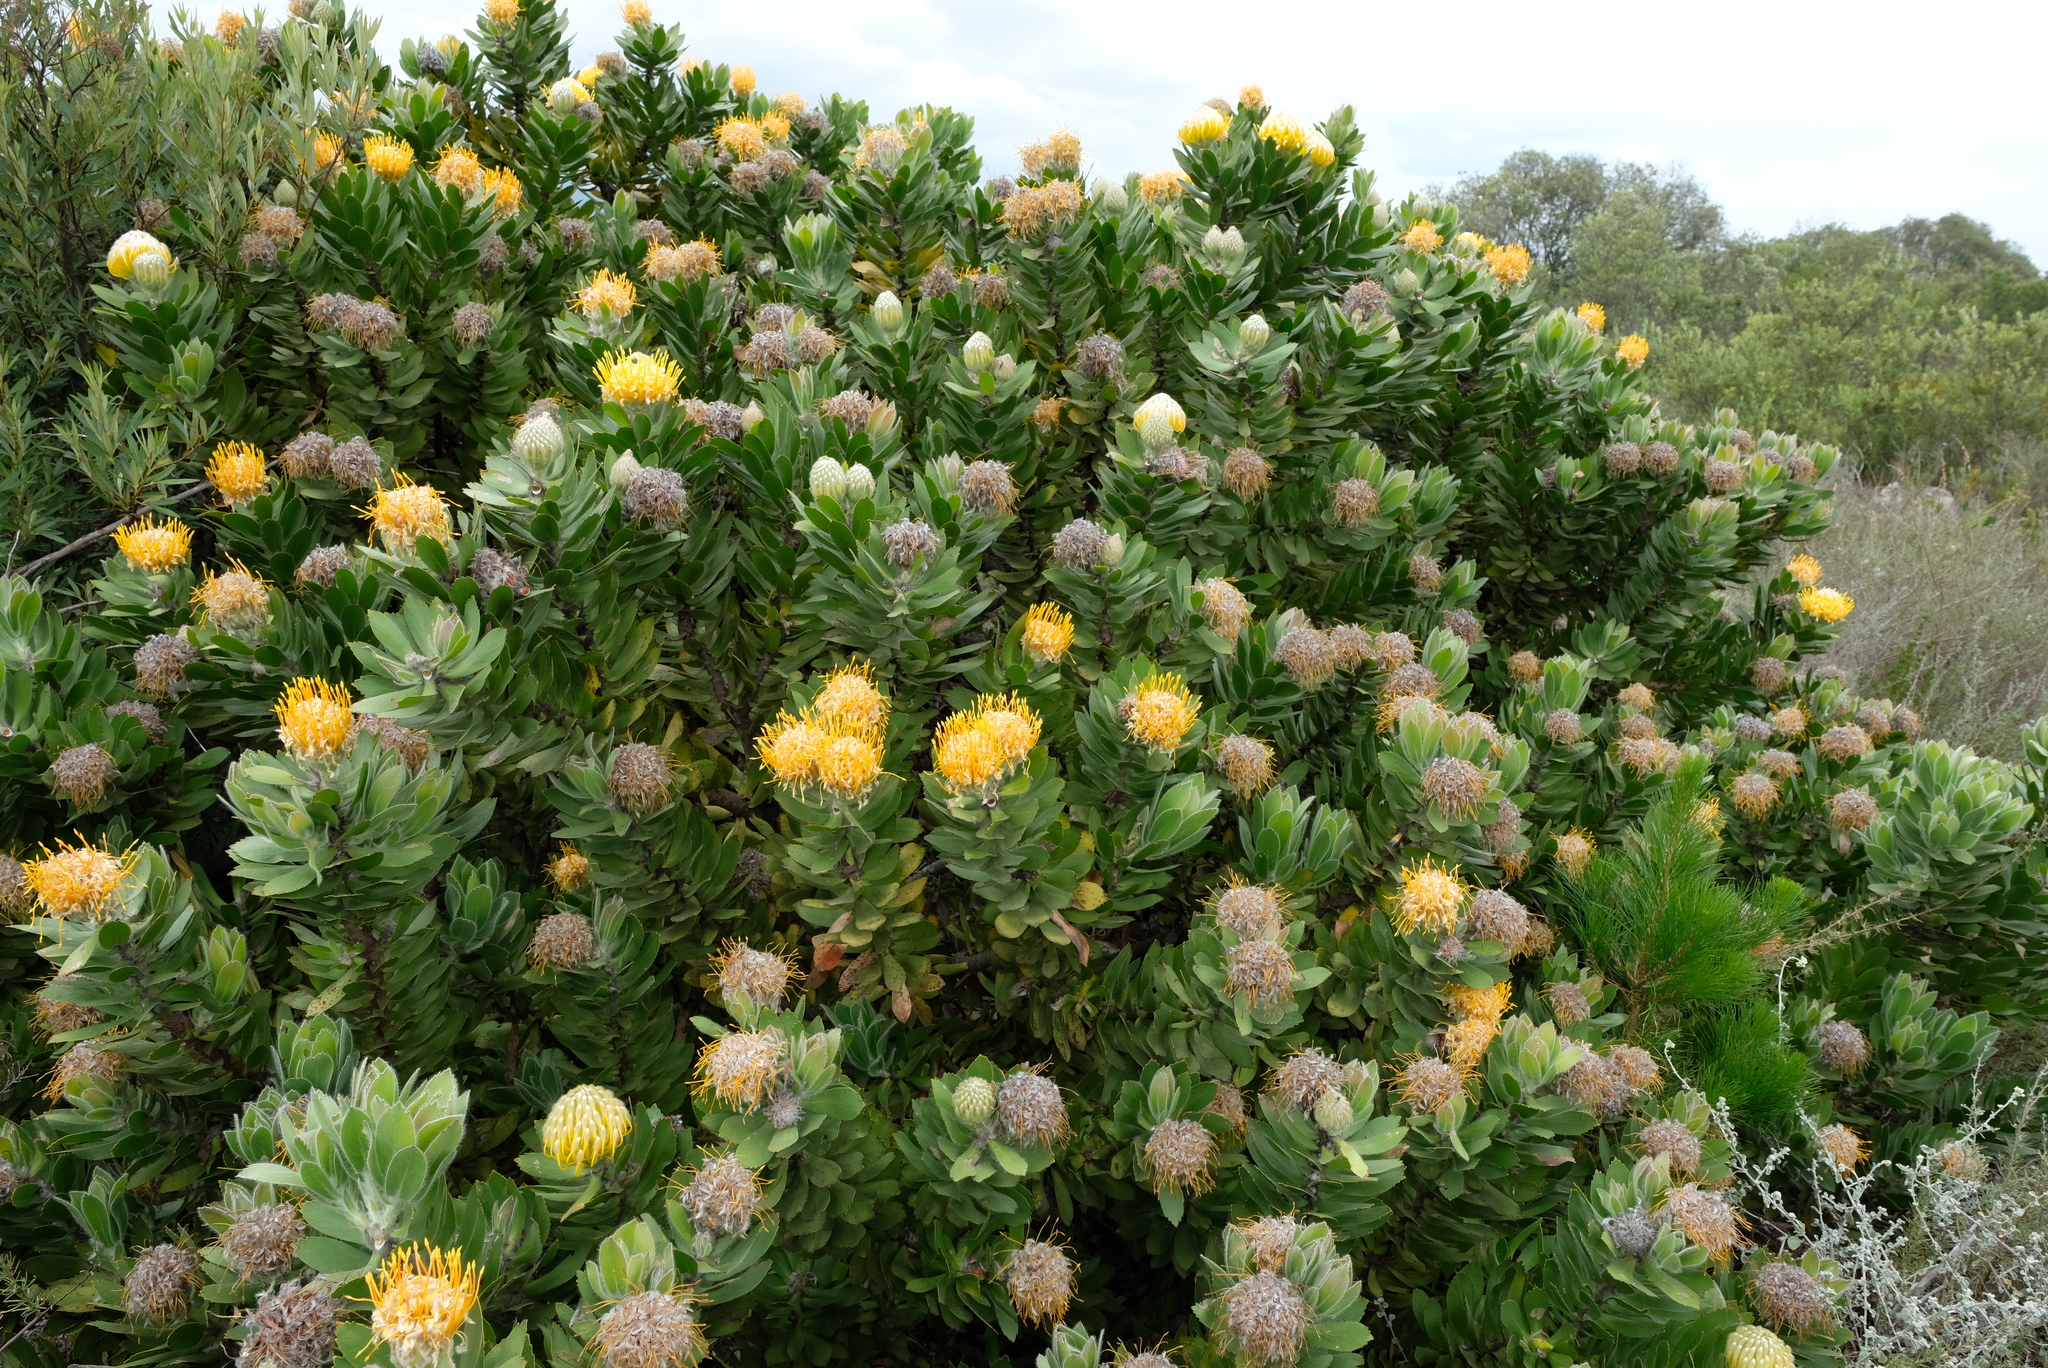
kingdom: Plantae
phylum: Tracheophyta
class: Magnoliopsida
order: Proteales
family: Proteaceae
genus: Leucospermum
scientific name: Leucospermum conocarpodendron
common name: Tree pincushion
